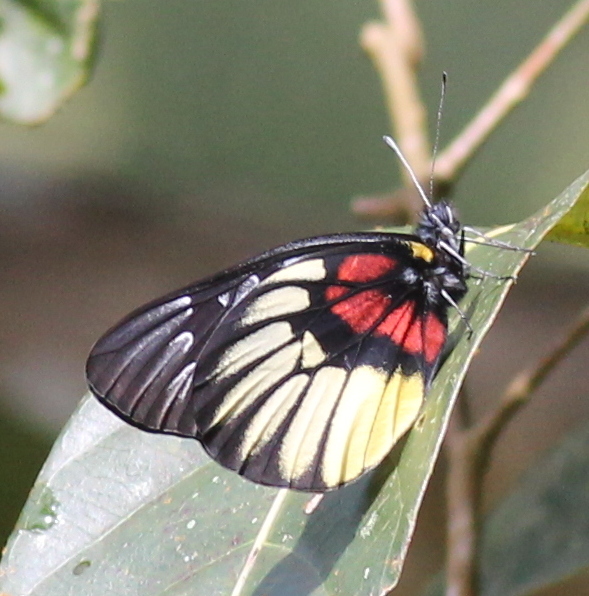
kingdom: Animalia
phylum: Arthropoda
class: Insecta
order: Lepidoptera
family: Pieridae
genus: Delias
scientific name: Delias acalis
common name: Red-breast jezebel
